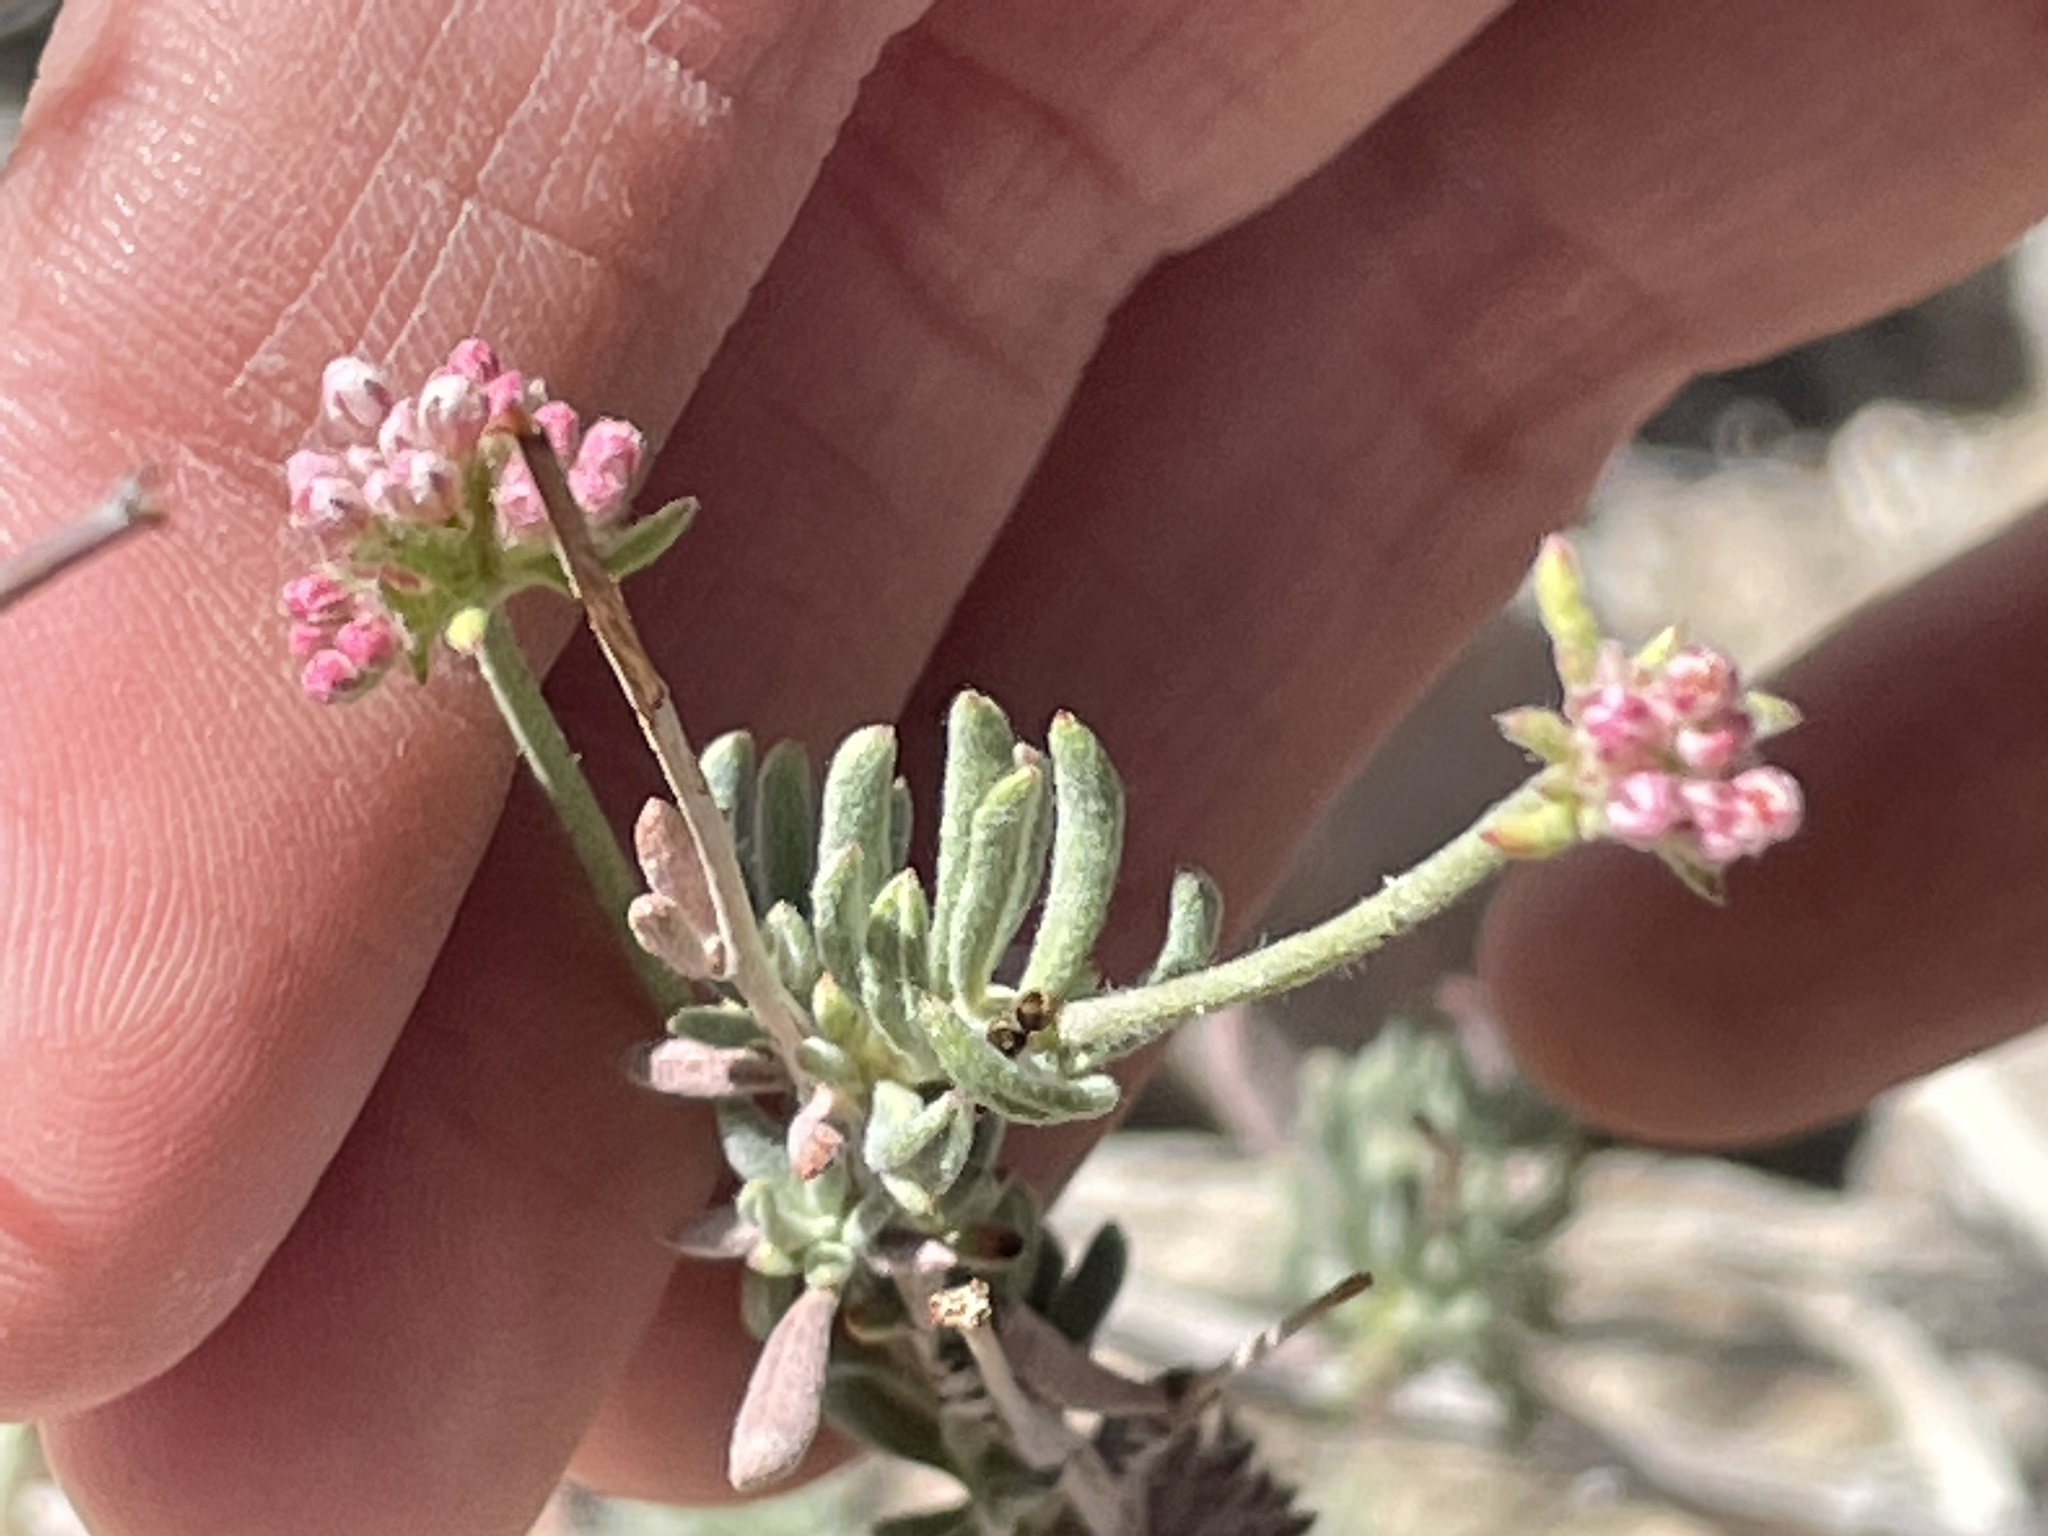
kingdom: Plantae
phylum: Tracheophyta
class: Magnoliopsida
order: Caryophyllales
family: Polygonaceae
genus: Eriogonum
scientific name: Eriogonum fasciculatum
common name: California wild buckwheat
